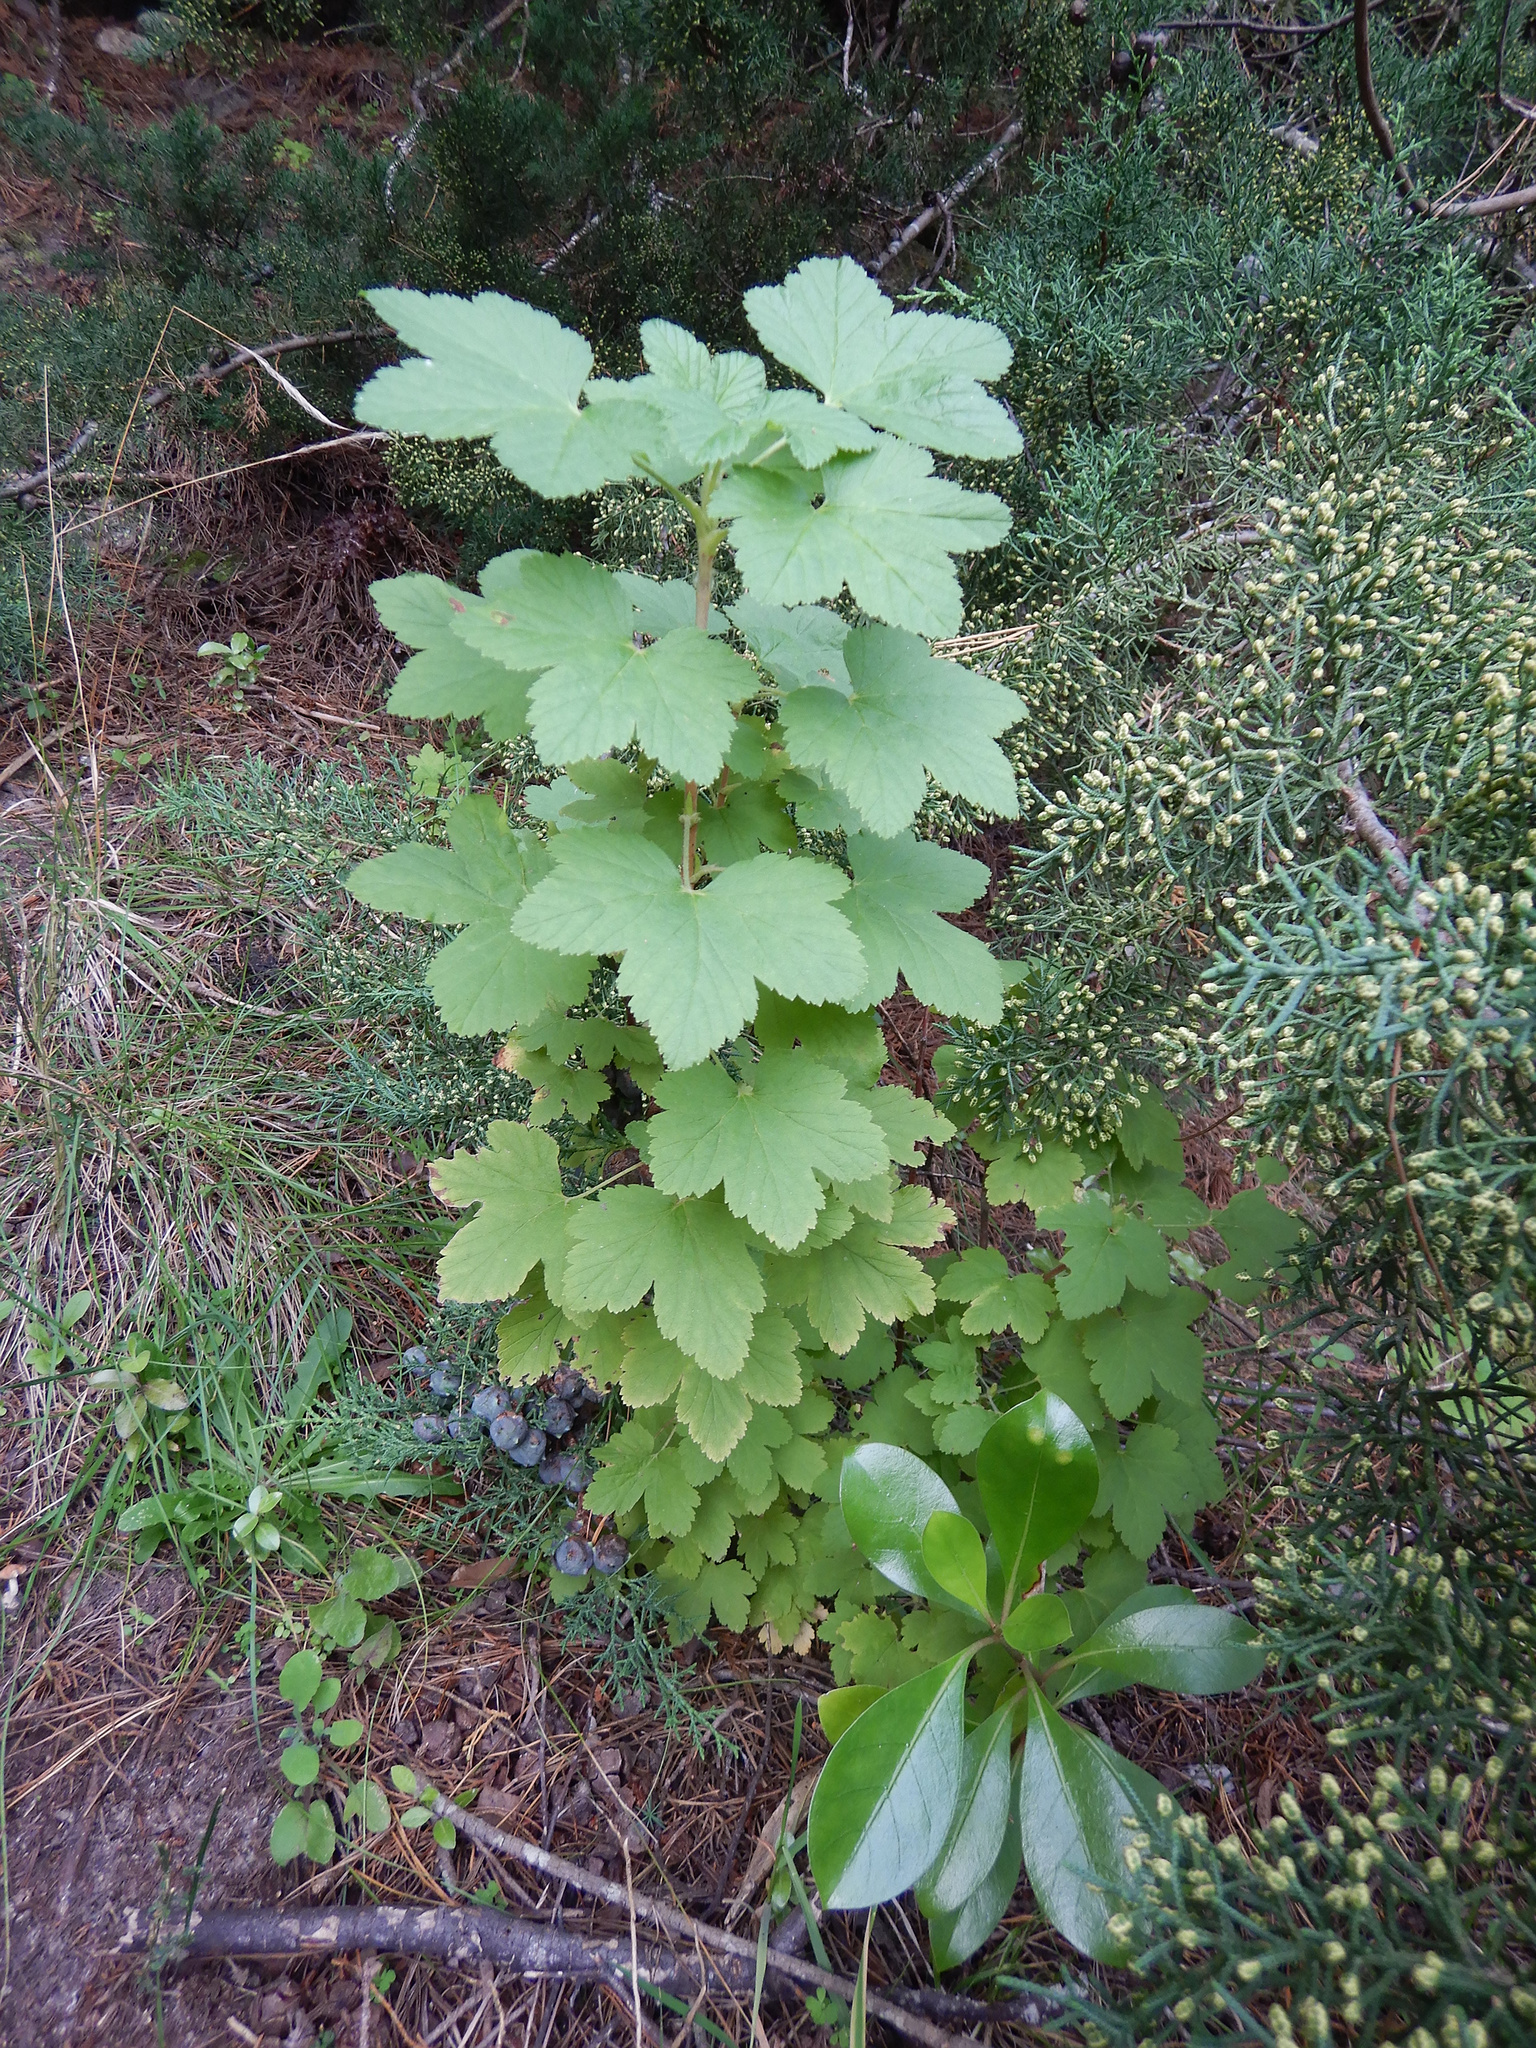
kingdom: Plantae
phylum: Tracheophyta
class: Magnoliopsida
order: Saxifragales
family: Grossulariaceae
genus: Ribes
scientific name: Ribes sanguineum
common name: Flowering currant
